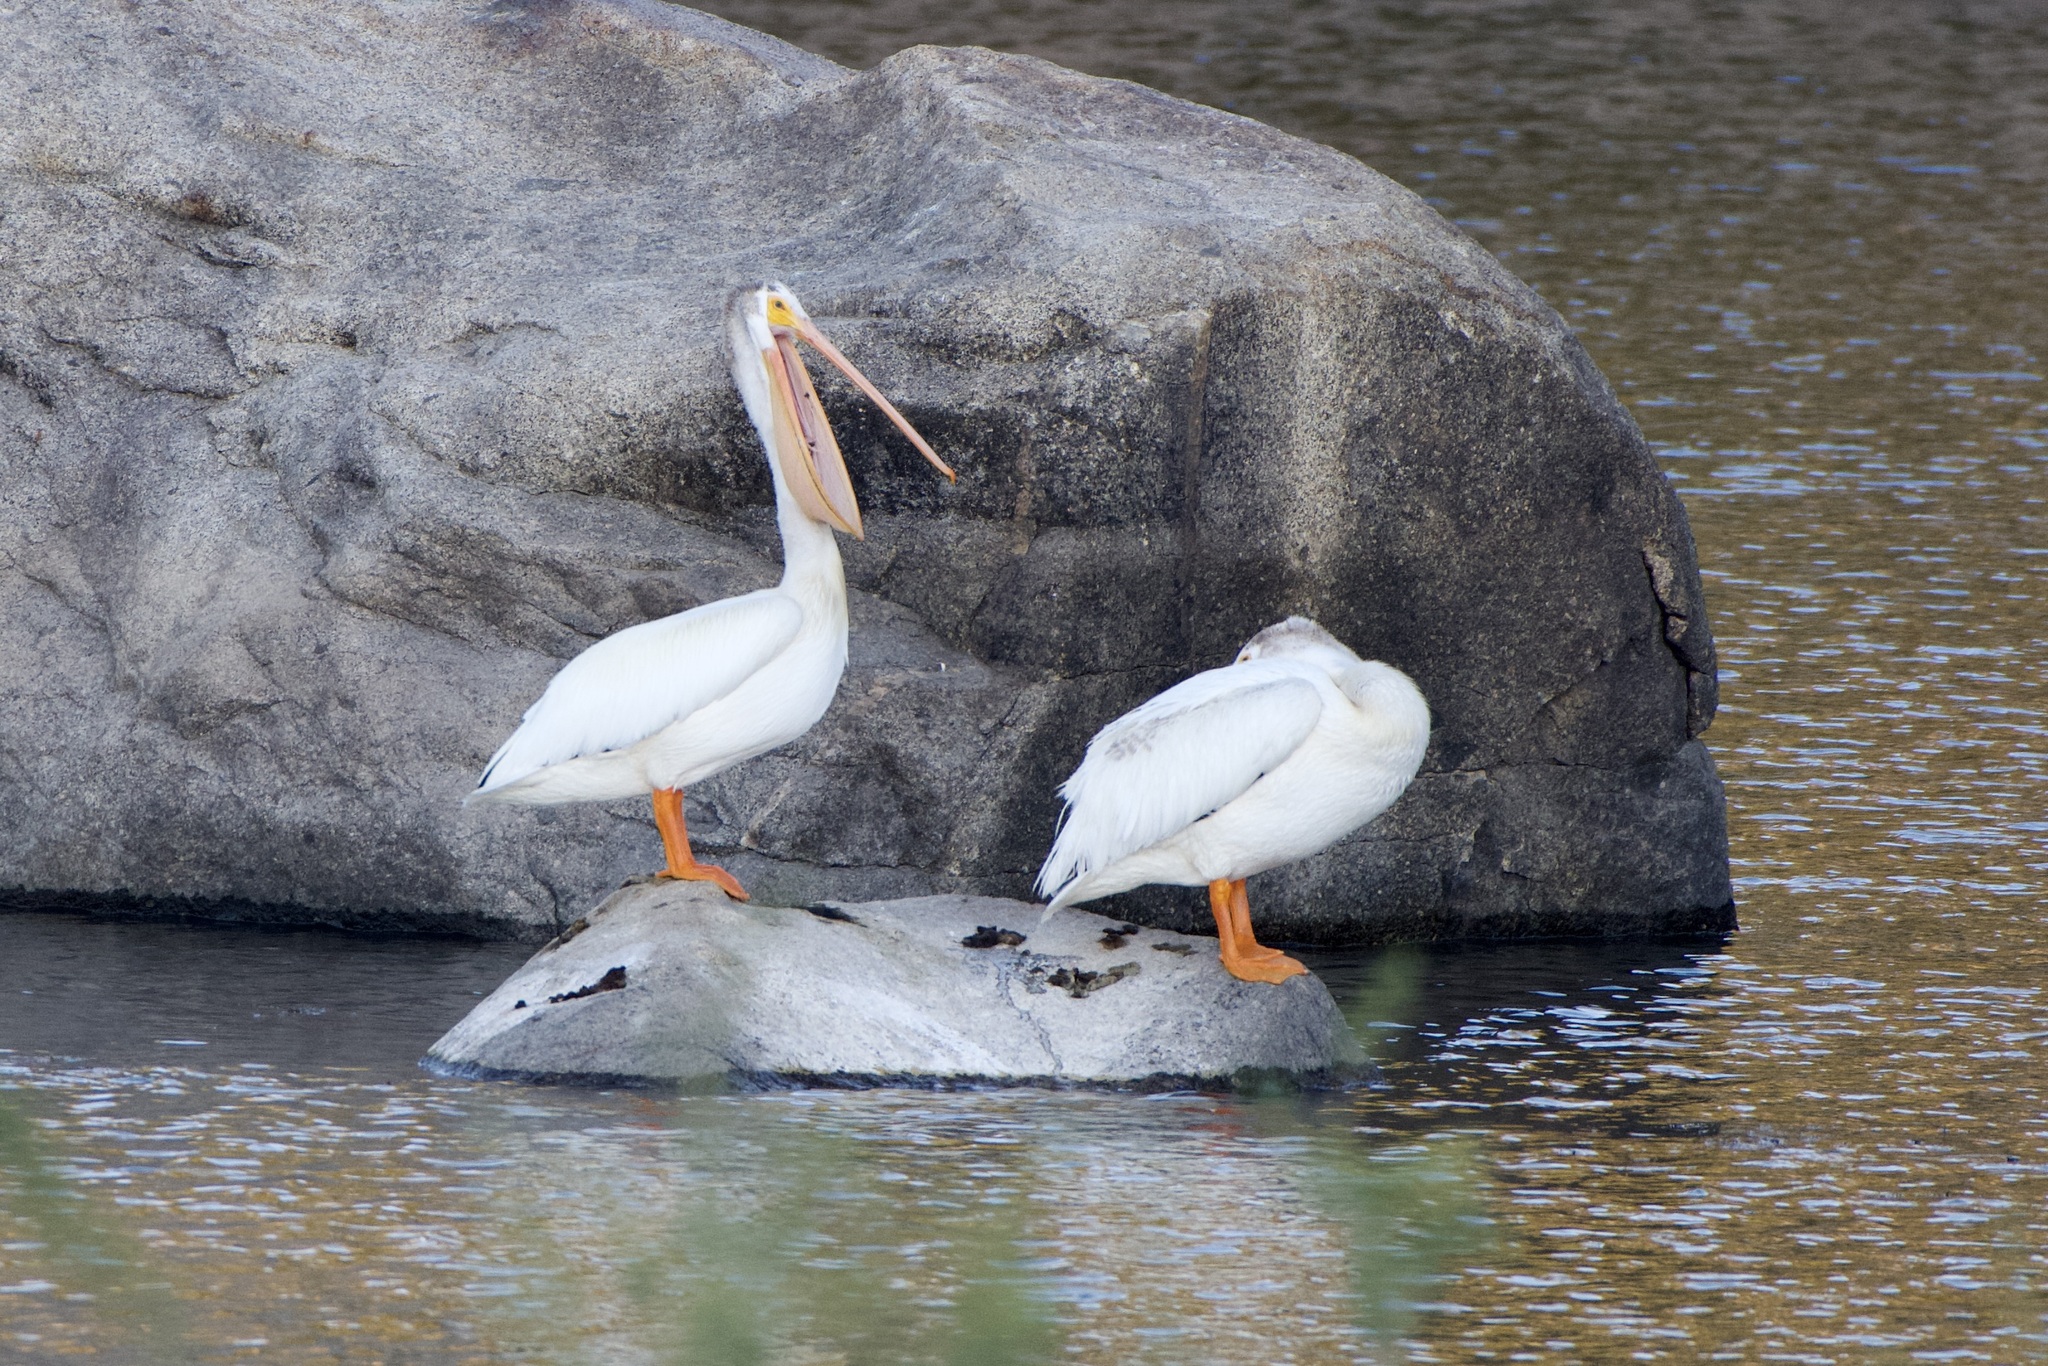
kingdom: Animalia
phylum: Chordata
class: Aves
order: Pelecaniformes
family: Pelecanidae
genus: Pelecanus
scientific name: Pelecanus erythrorhynchos
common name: American white pelican
